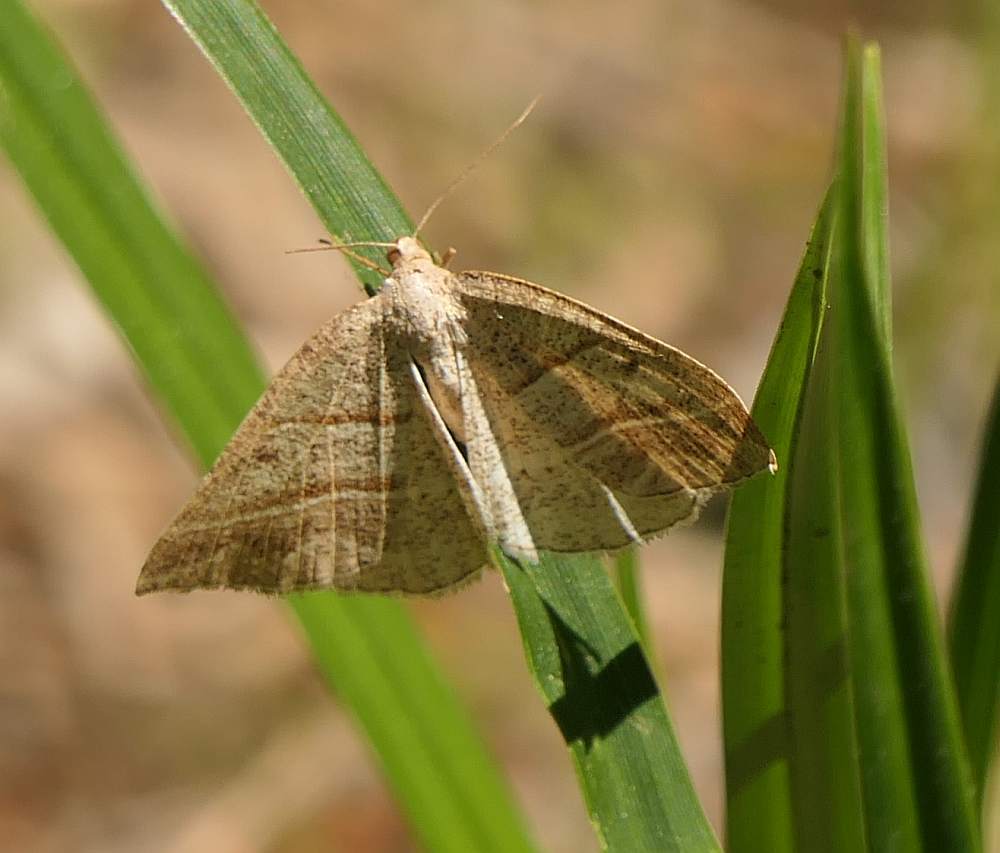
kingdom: Animalia
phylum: Arthropoda
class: Insecta
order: Lepidoptera
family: Pterophoridae
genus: Pterophorus
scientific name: Pterophorus Petrophora subaequaria
